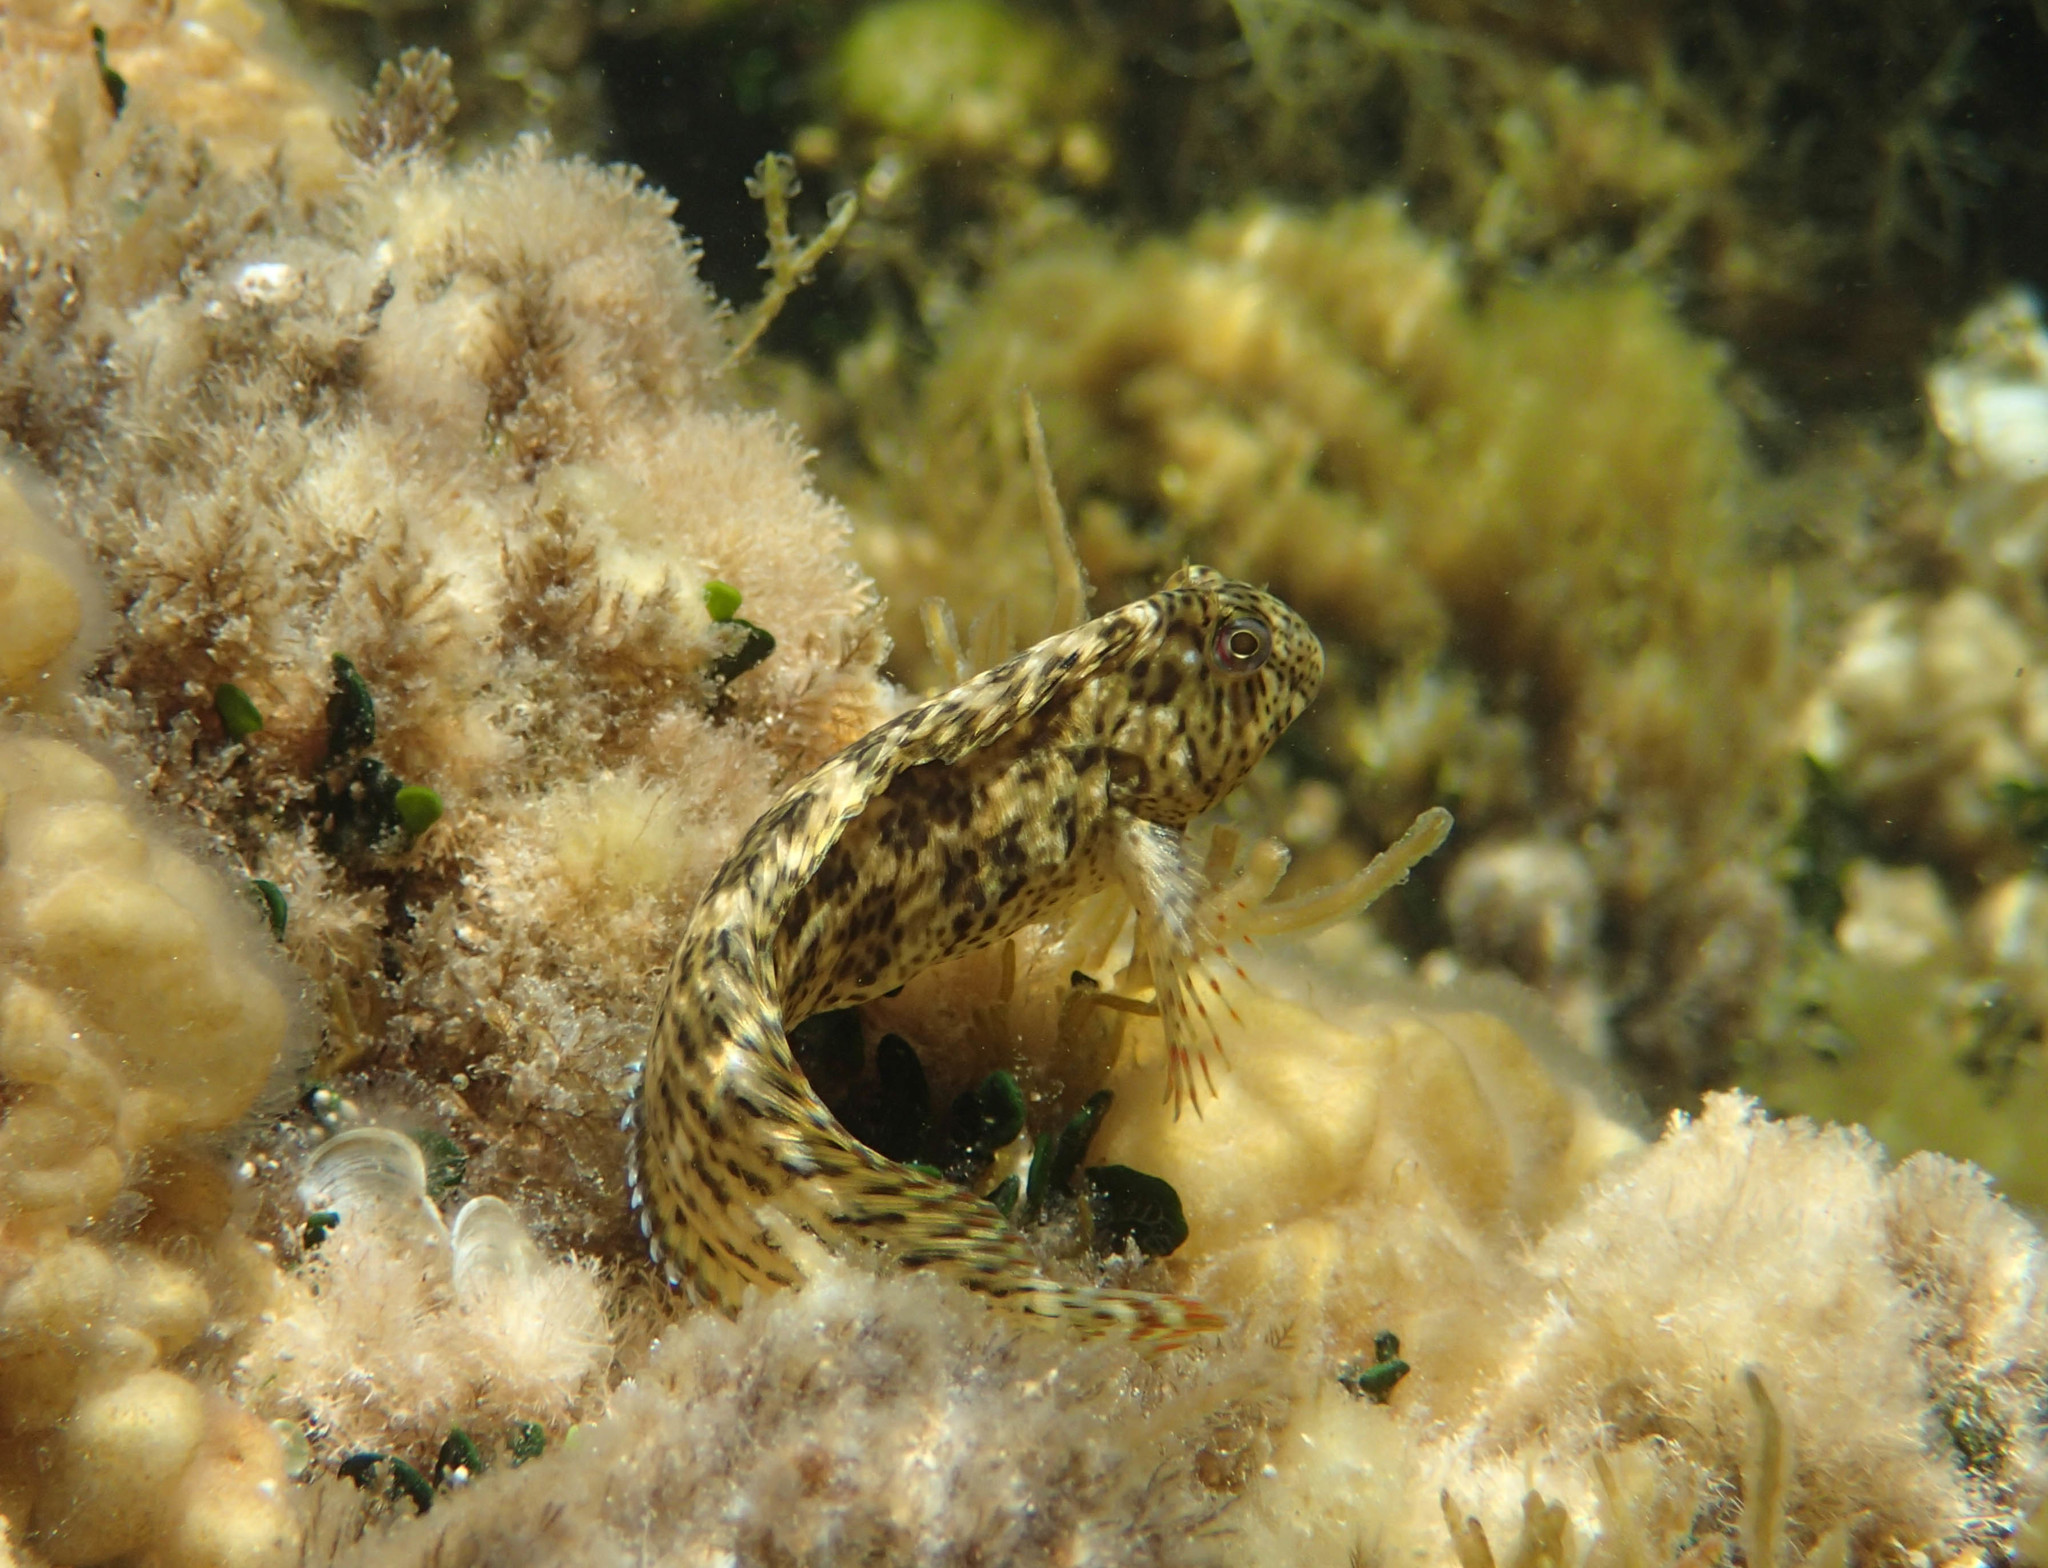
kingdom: Animalia
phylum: Chordata
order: Perciformes
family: Blenniidae
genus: Parablennius
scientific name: Parablennius sanguinolentus
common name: Black sea blenny
